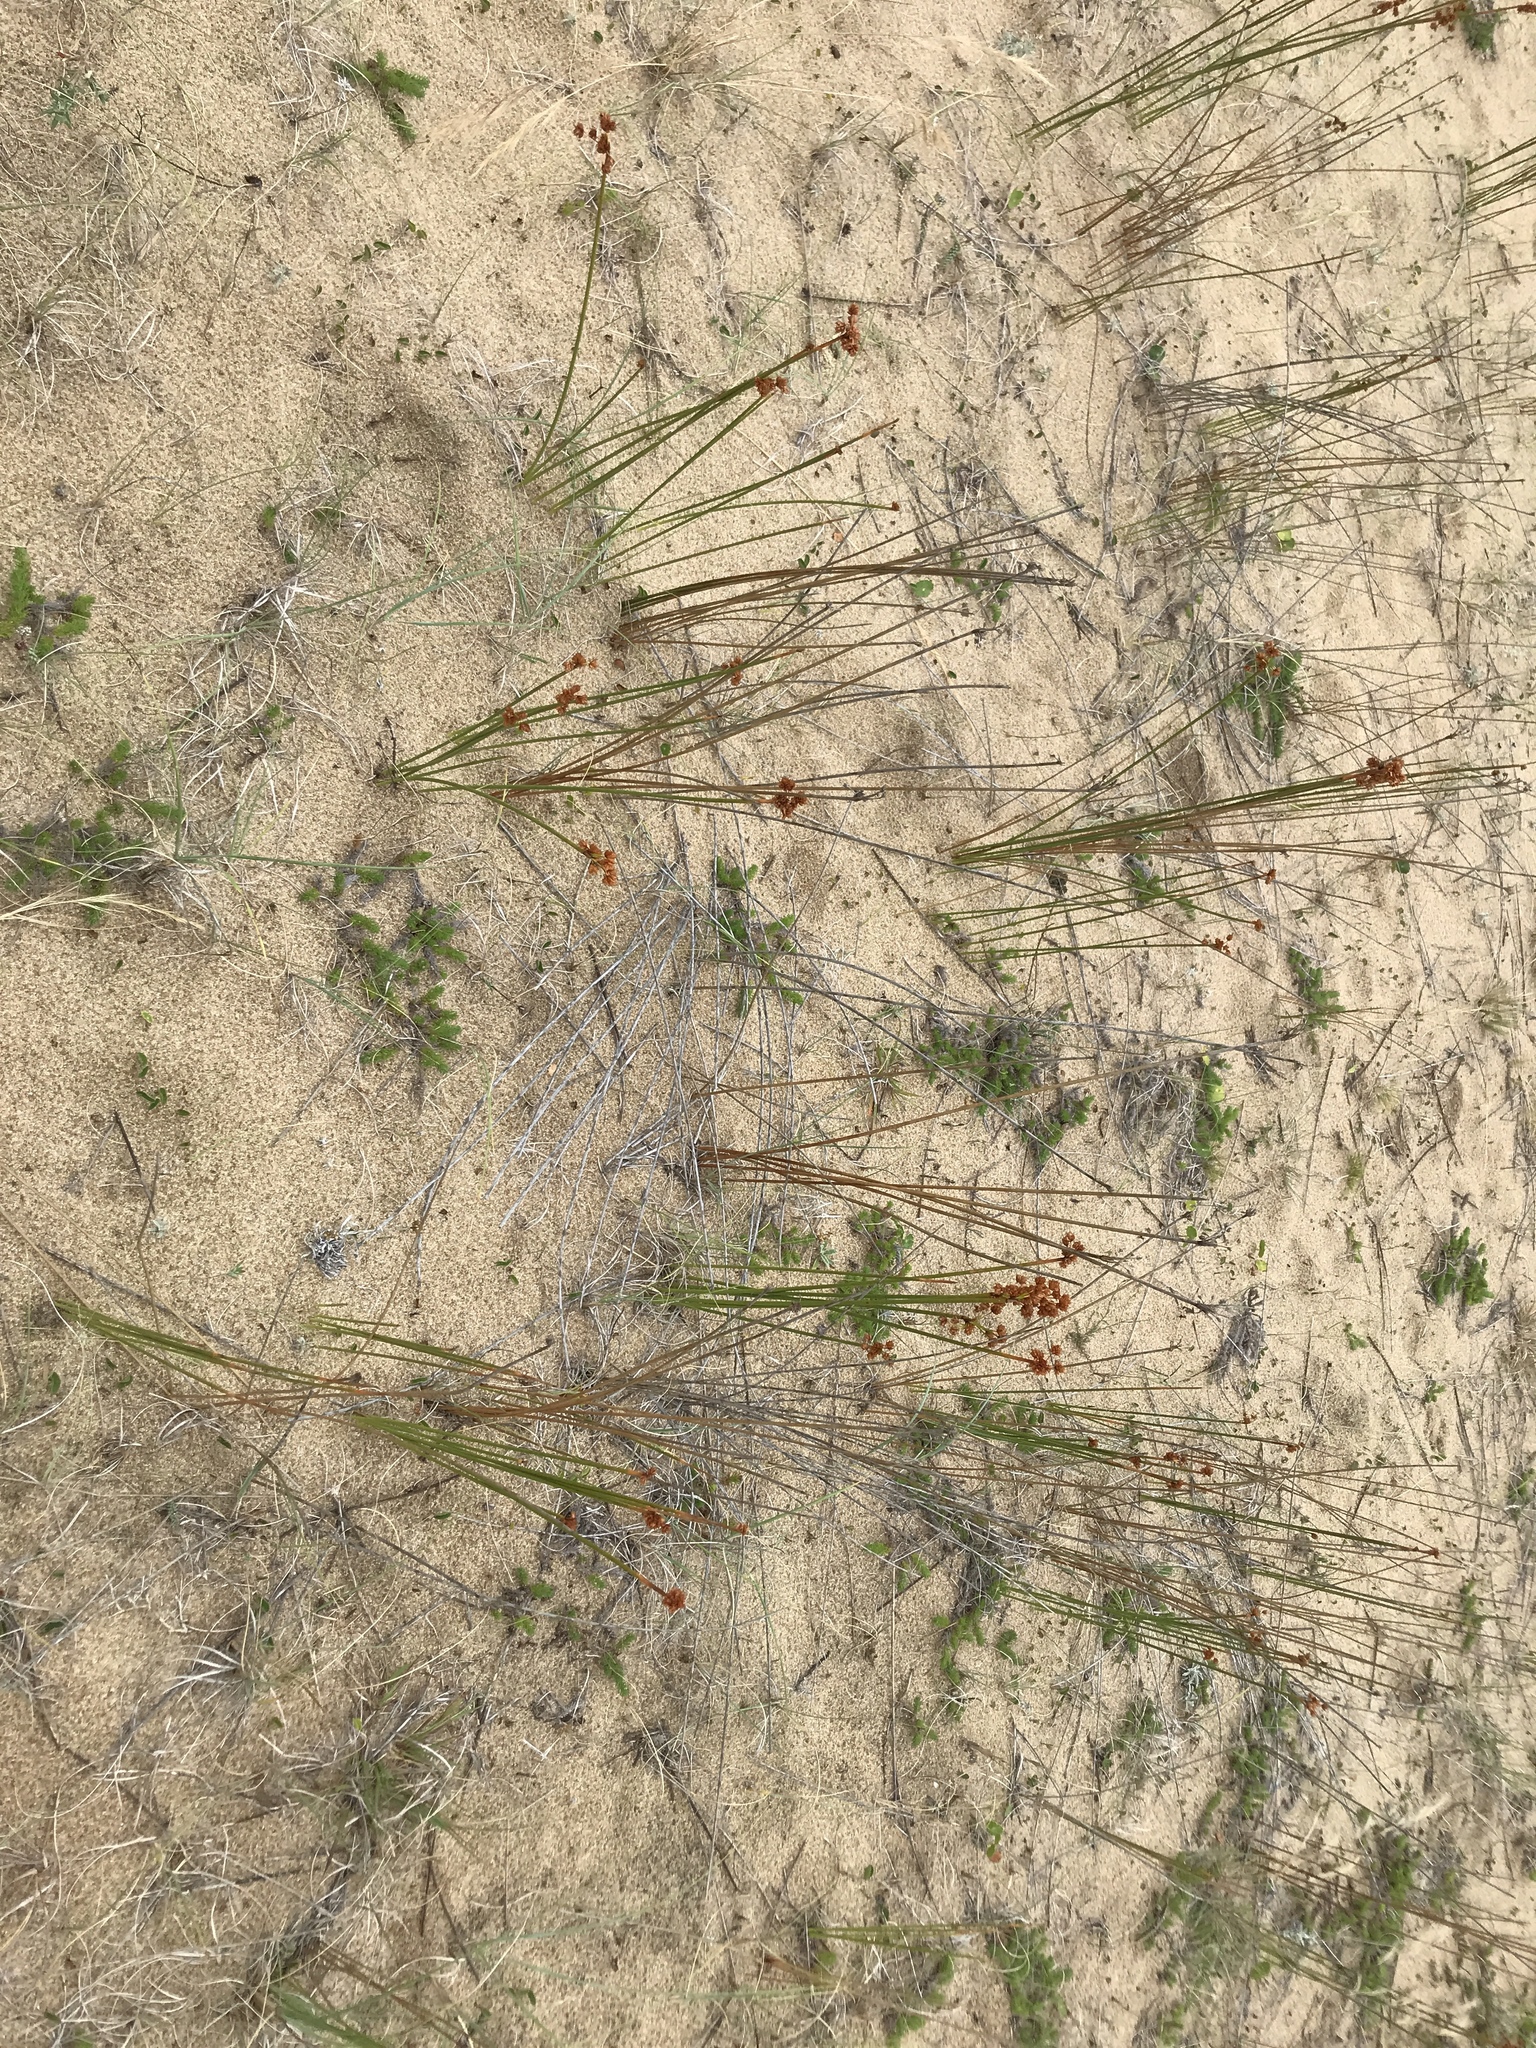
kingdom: Plantae
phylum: Tracheophyta
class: Liliopsida
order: Poales
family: Cyperaceae
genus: Cyperus
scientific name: Cyperus trigynus
